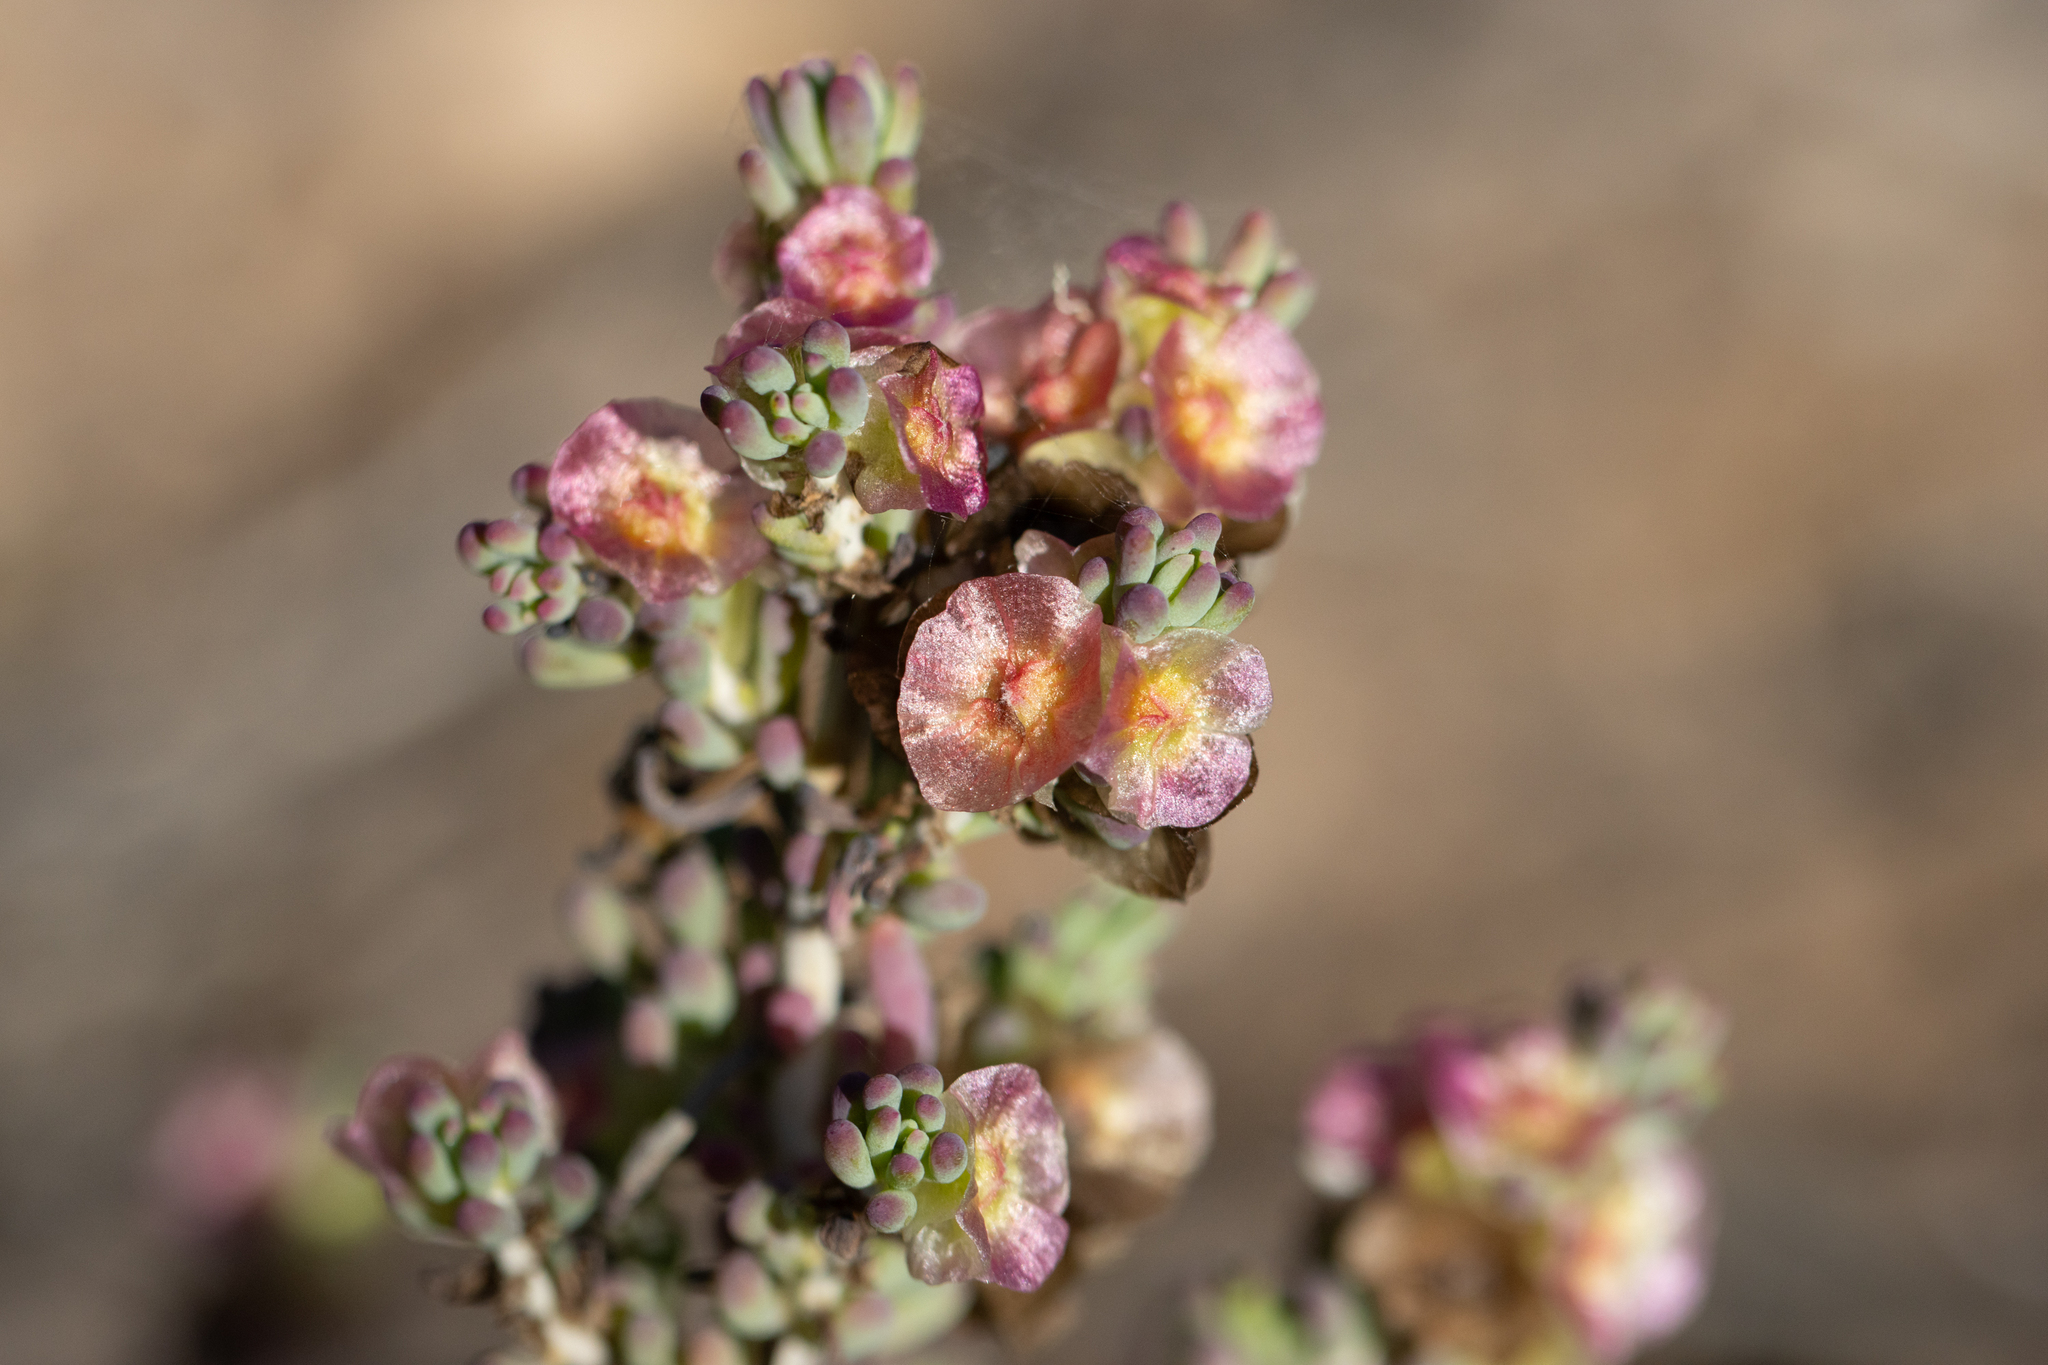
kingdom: Plantae
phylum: Tracheophyta
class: Magnoliopsida
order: Caryophyllales
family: Amaranthaceae
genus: Maireana
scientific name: Maireana erioclada
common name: Rosy bluebush
